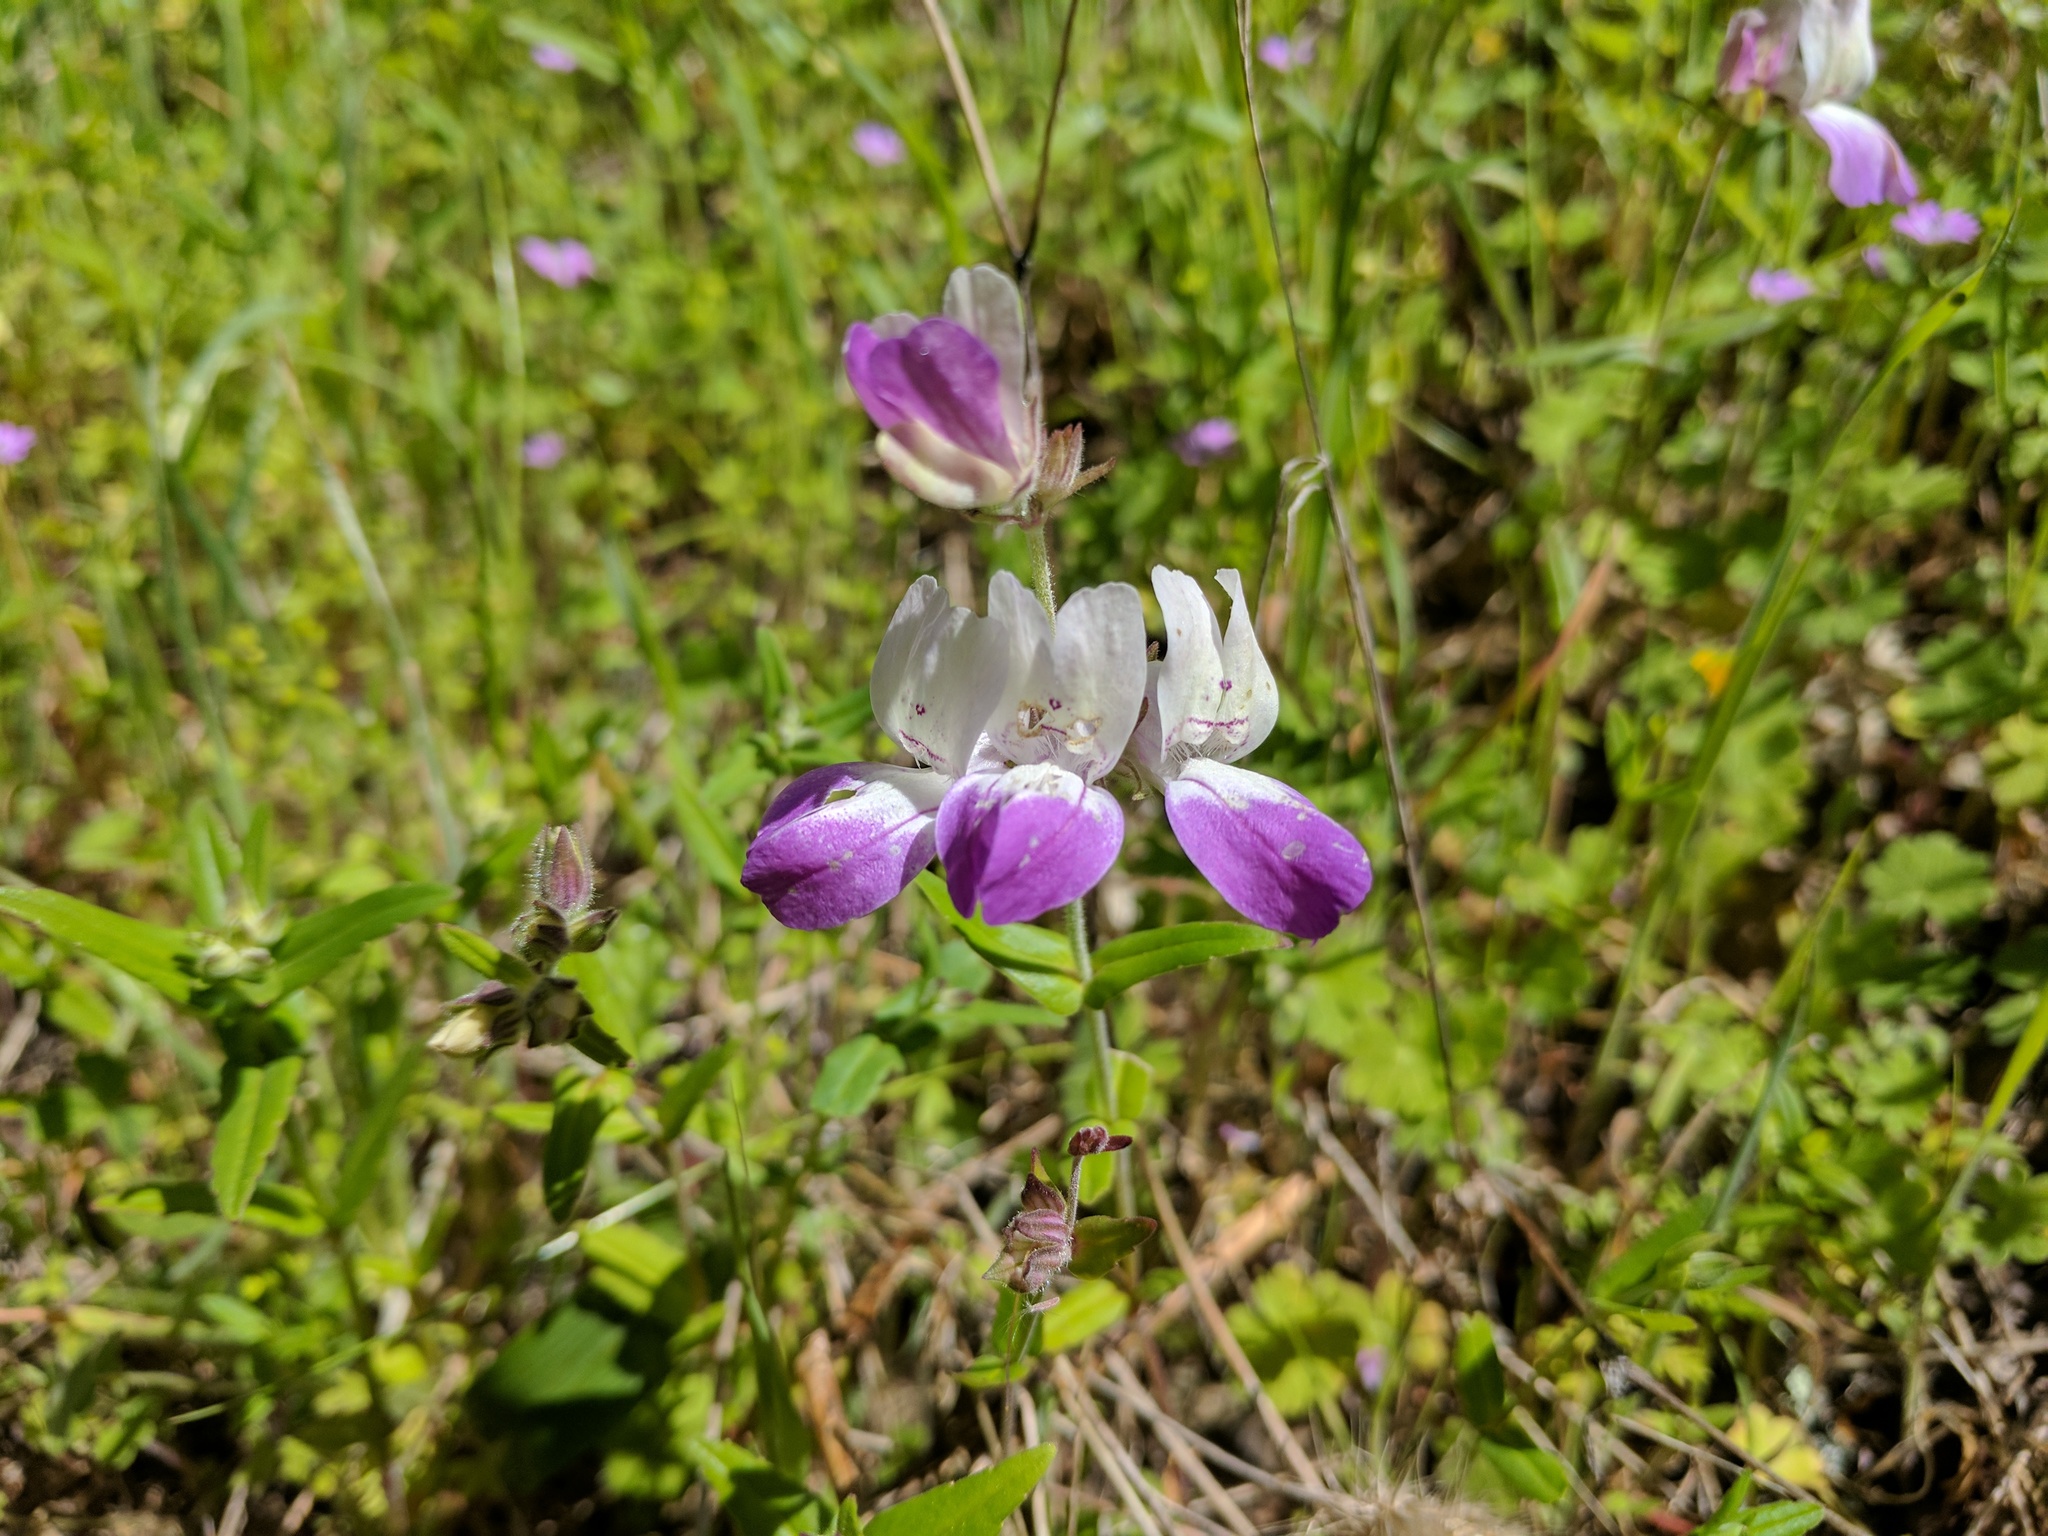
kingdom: Plantae
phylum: Tracheophyta
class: Magnoliopsida
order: Lamiales
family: Plantaginaceae
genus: Collinsia
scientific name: Collinsia heterophylla
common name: Chinese-houses
